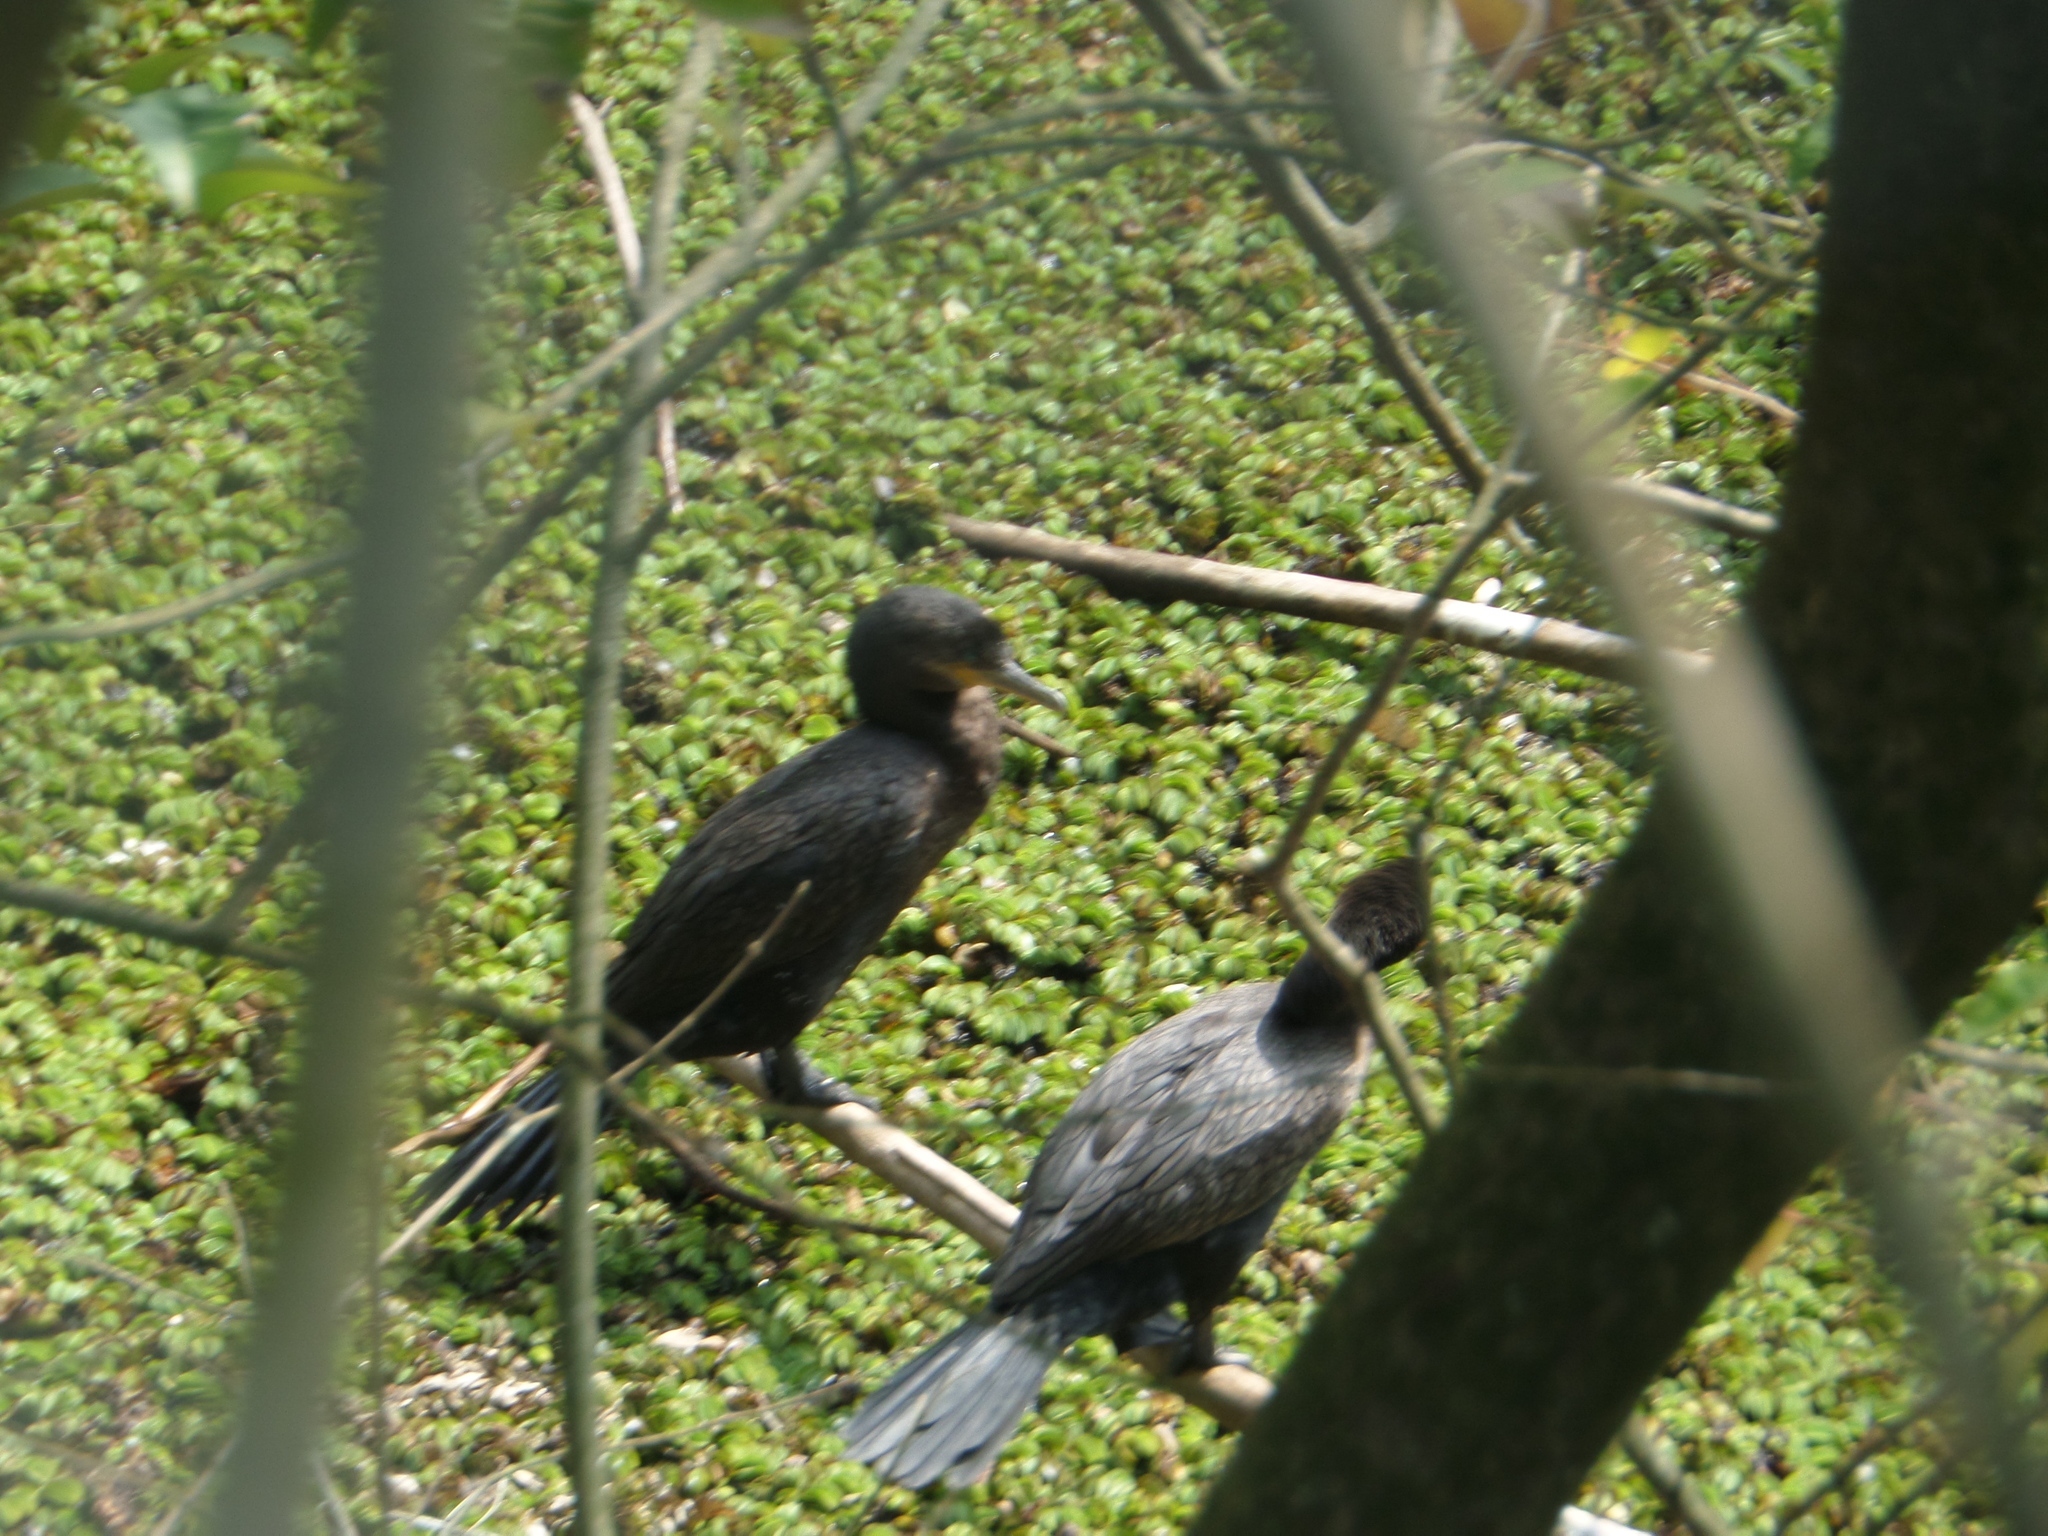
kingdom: Animalia
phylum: Chordata
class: Aves
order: Suliformes
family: Phalacrocoracidae
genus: Phalacrocorax
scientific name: Phalacrocorax brasilianus
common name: Neotropic cormorant
